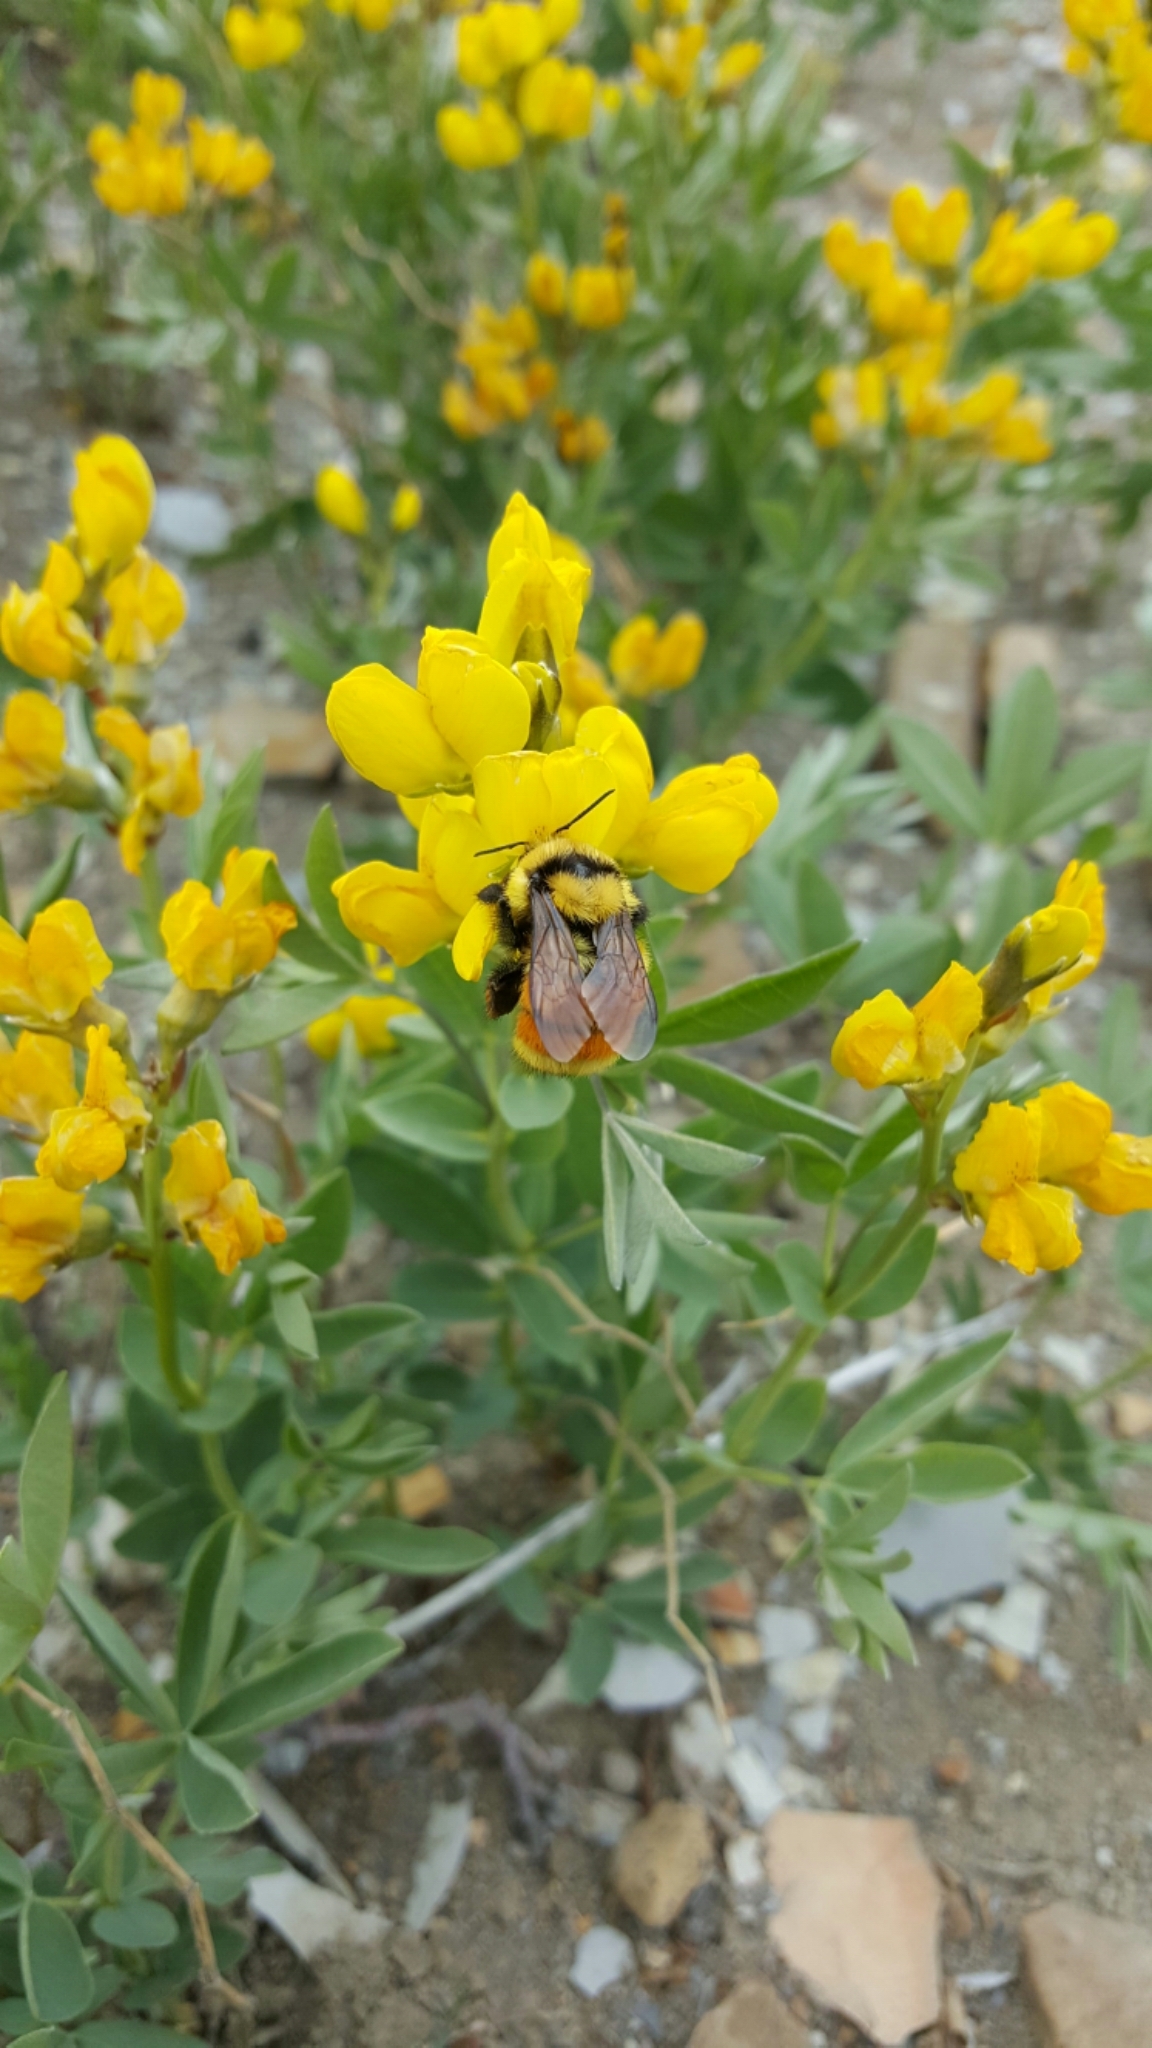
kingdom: Animalia
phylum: Arthropoda
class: Insecta
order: Hymenoptera
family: Apidae
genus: Bombus
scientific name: Bombus huntii
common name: Hunt bumble bee
